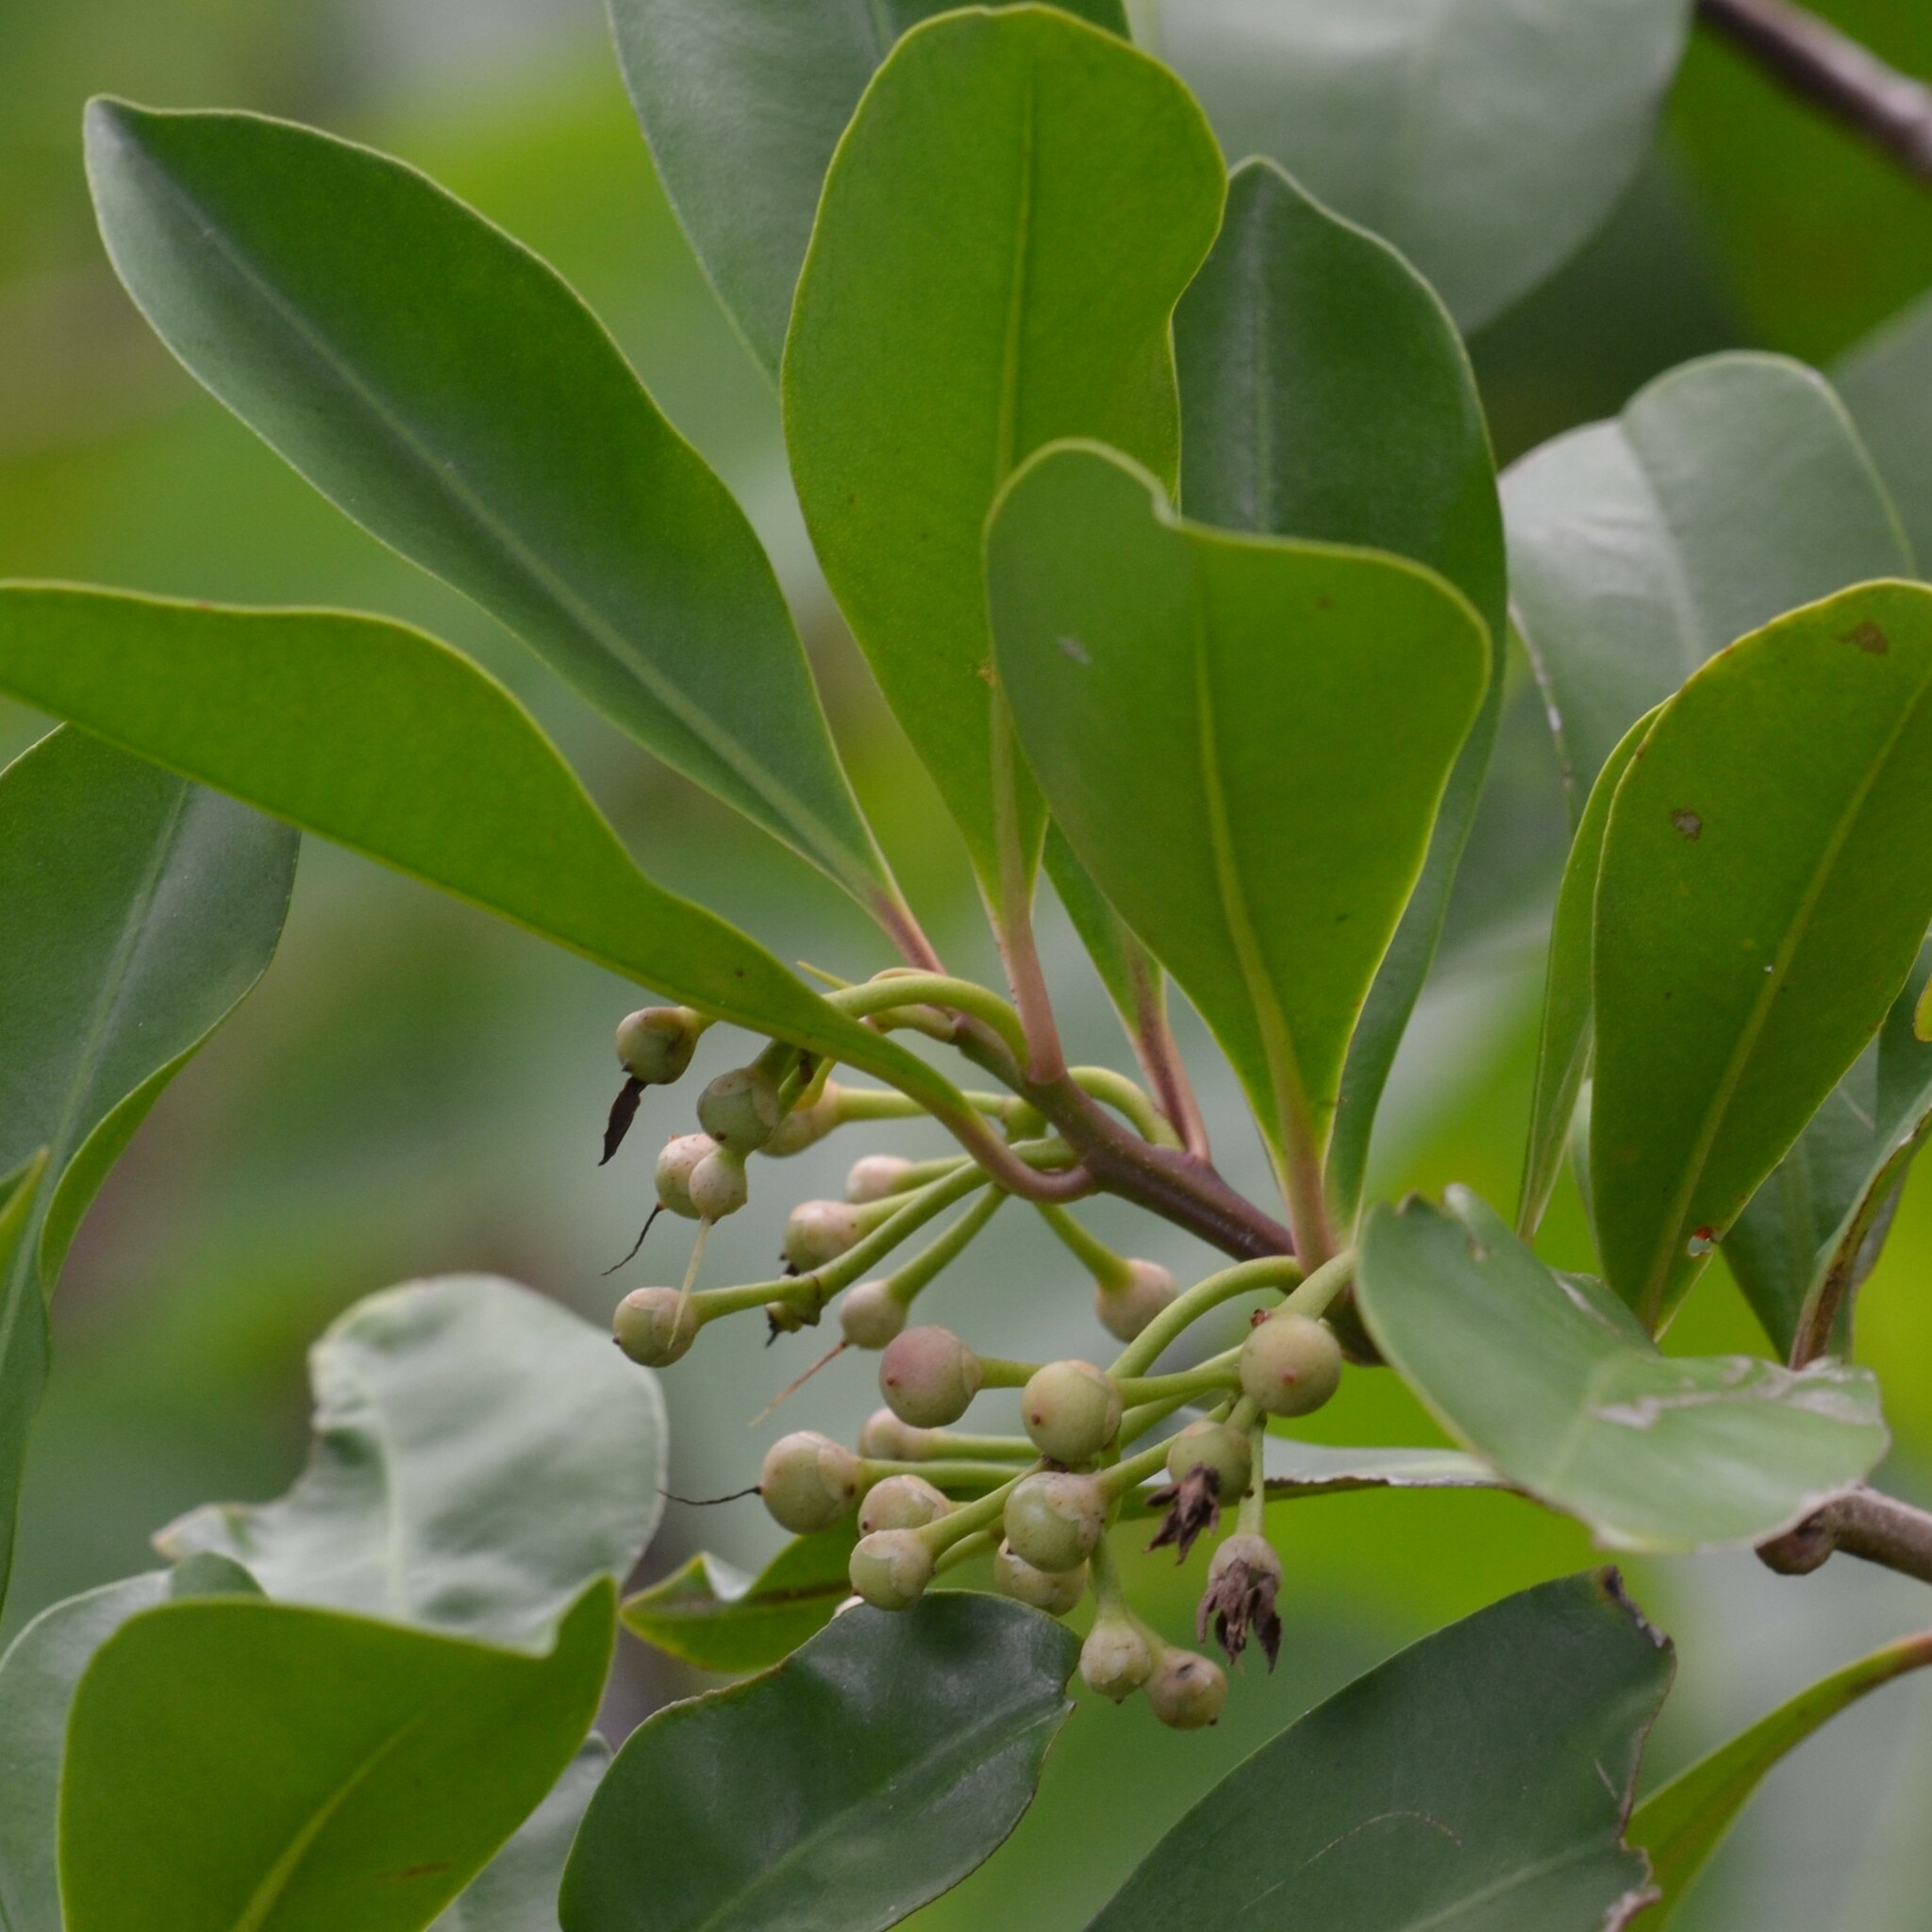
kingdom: Plantae
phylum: Tracheophyta
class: Magnoliopsida
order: Ericales
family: Primulaceae
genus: Ardisia
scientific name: Ardisia elliptica
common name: Shoebutton
